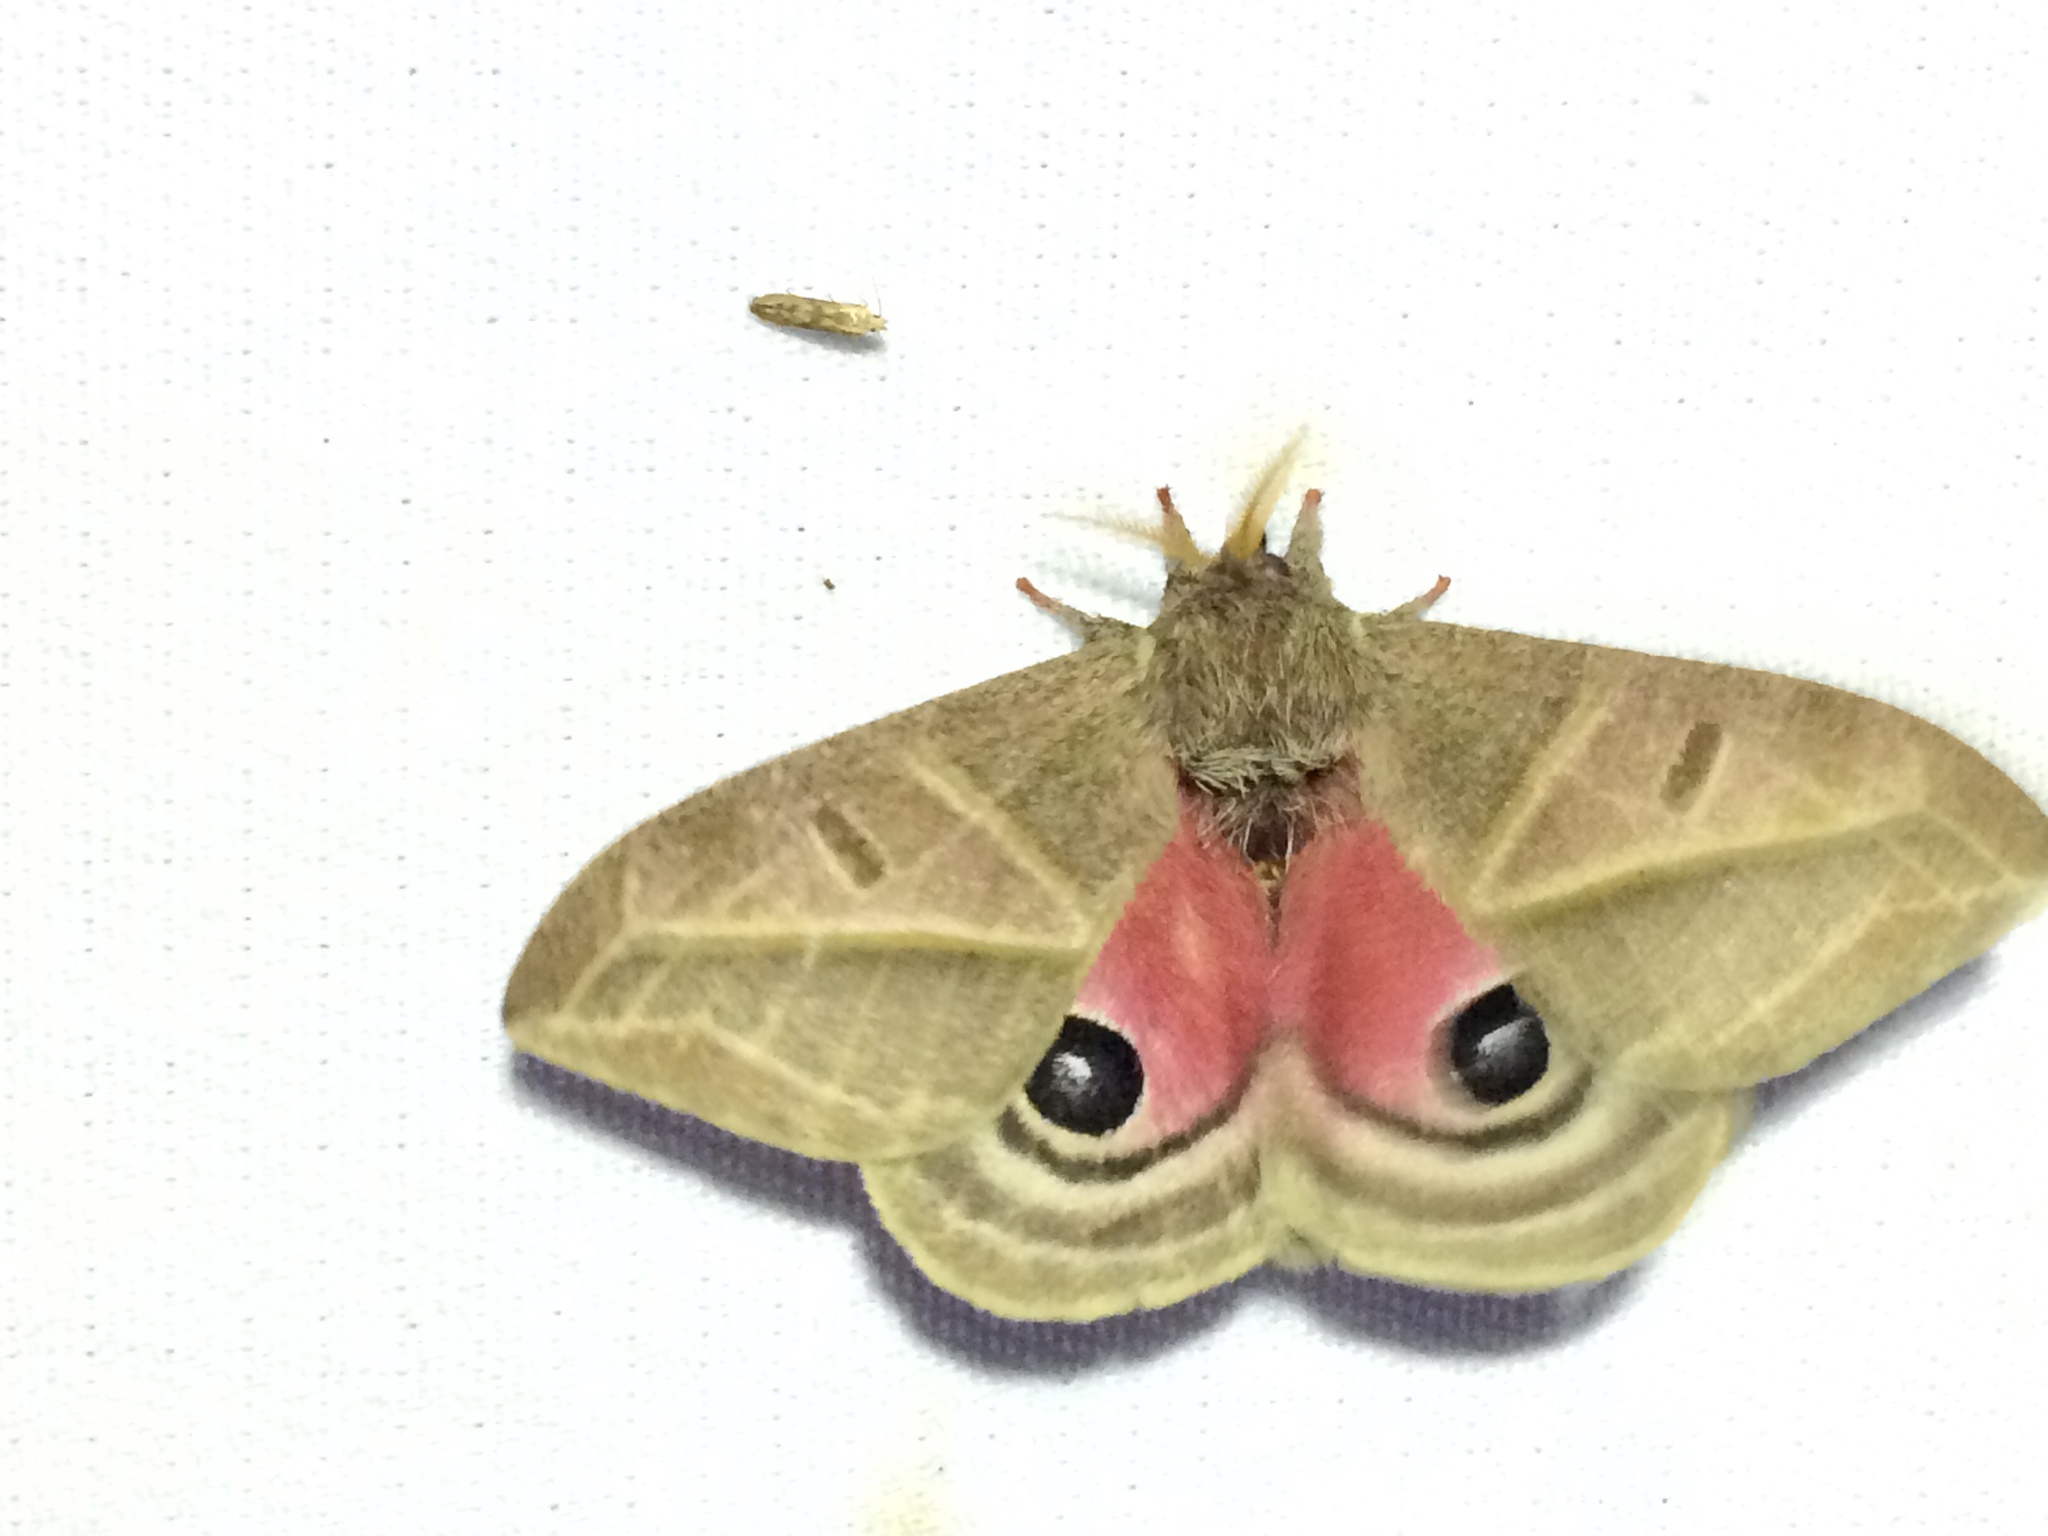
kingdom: Animalia
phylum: Arthropoda
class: Insecta
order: Lepidoptera
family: Saturniidae
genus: Austrolippa
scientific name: Austrolippa convergens
